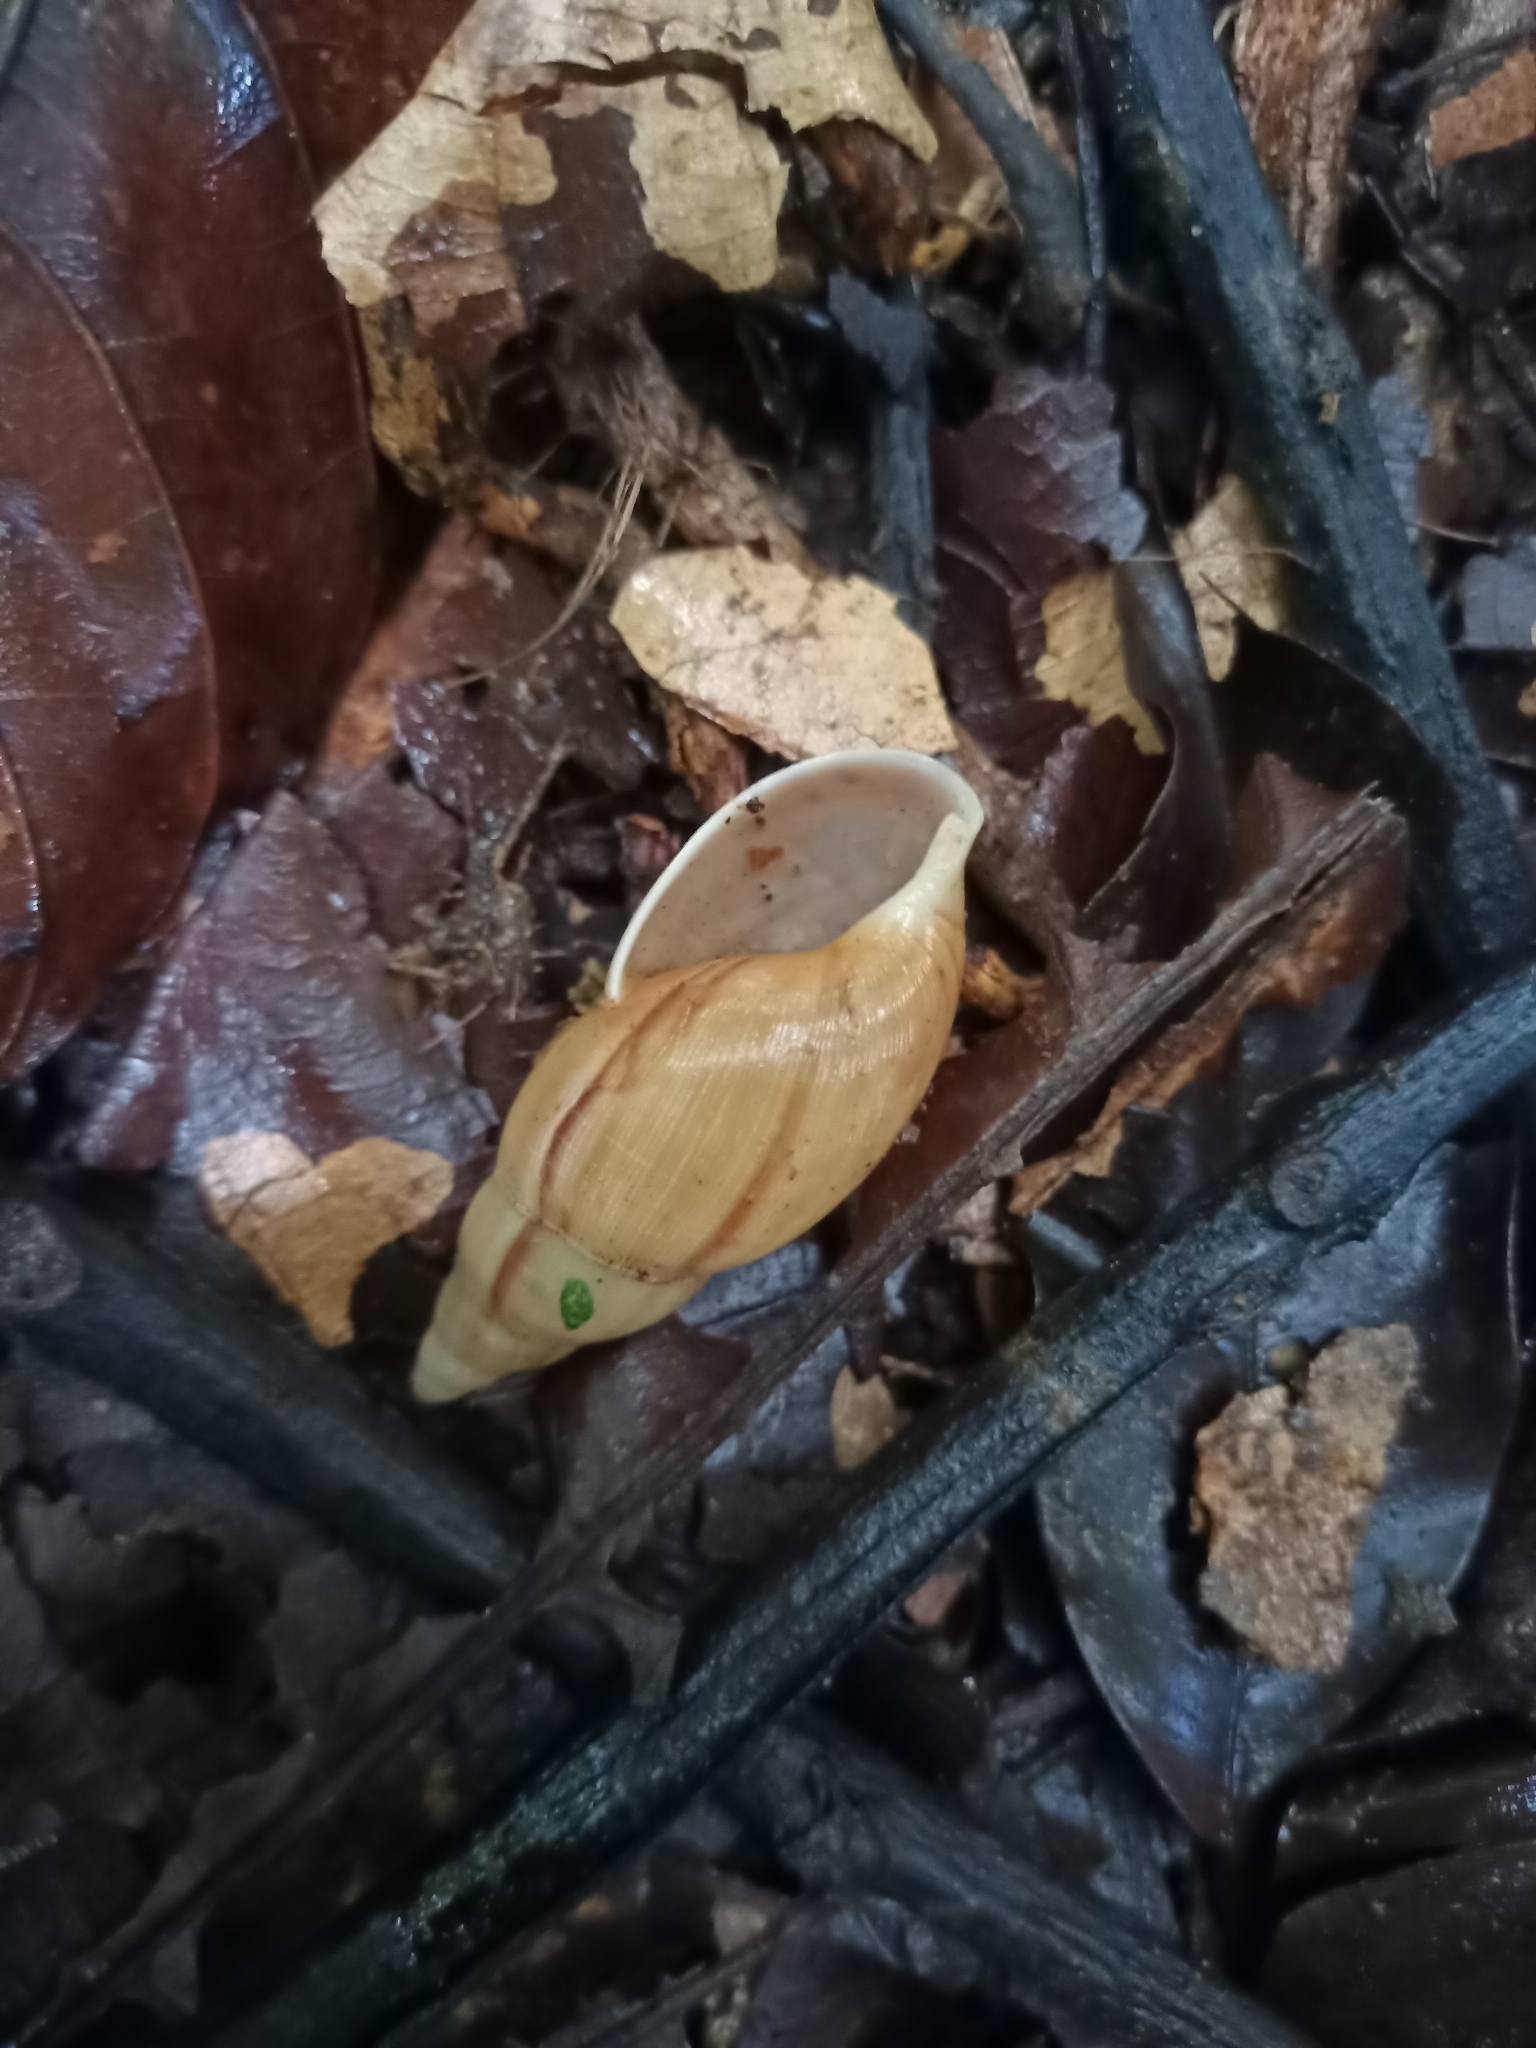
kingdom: Animalia
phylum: Mollusca
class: Gastropoda
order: Stylommatophora
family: Spiraxidae
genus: Euglandina
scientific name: Euglandina striata
